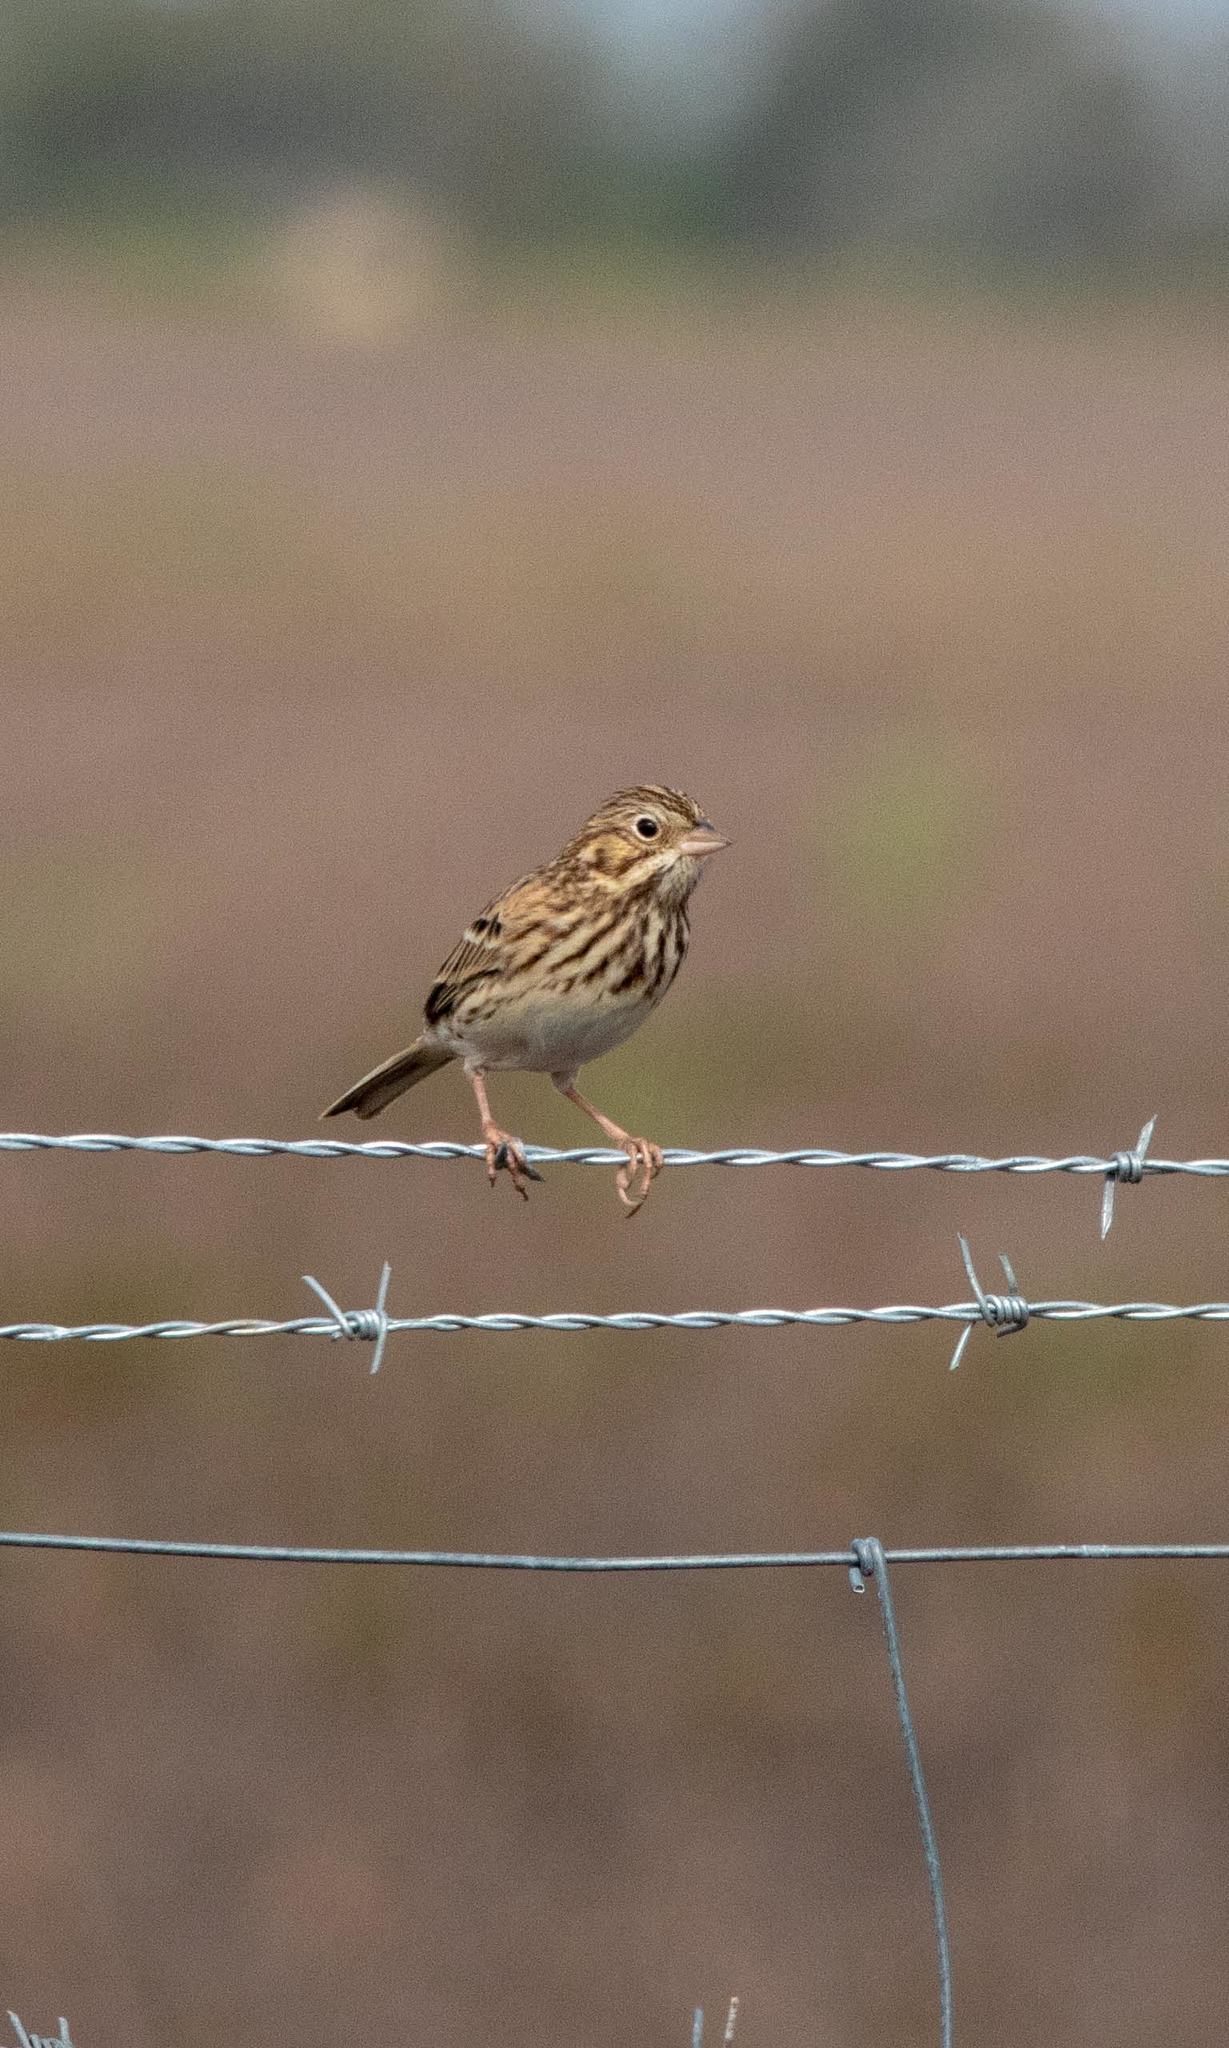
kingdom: Animalia
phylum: Chordata
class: Aves
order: Passeriformes
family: Passerellidae
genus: Pooecetes
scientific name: Pooecetes gramineus
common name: Vesper sparrow
